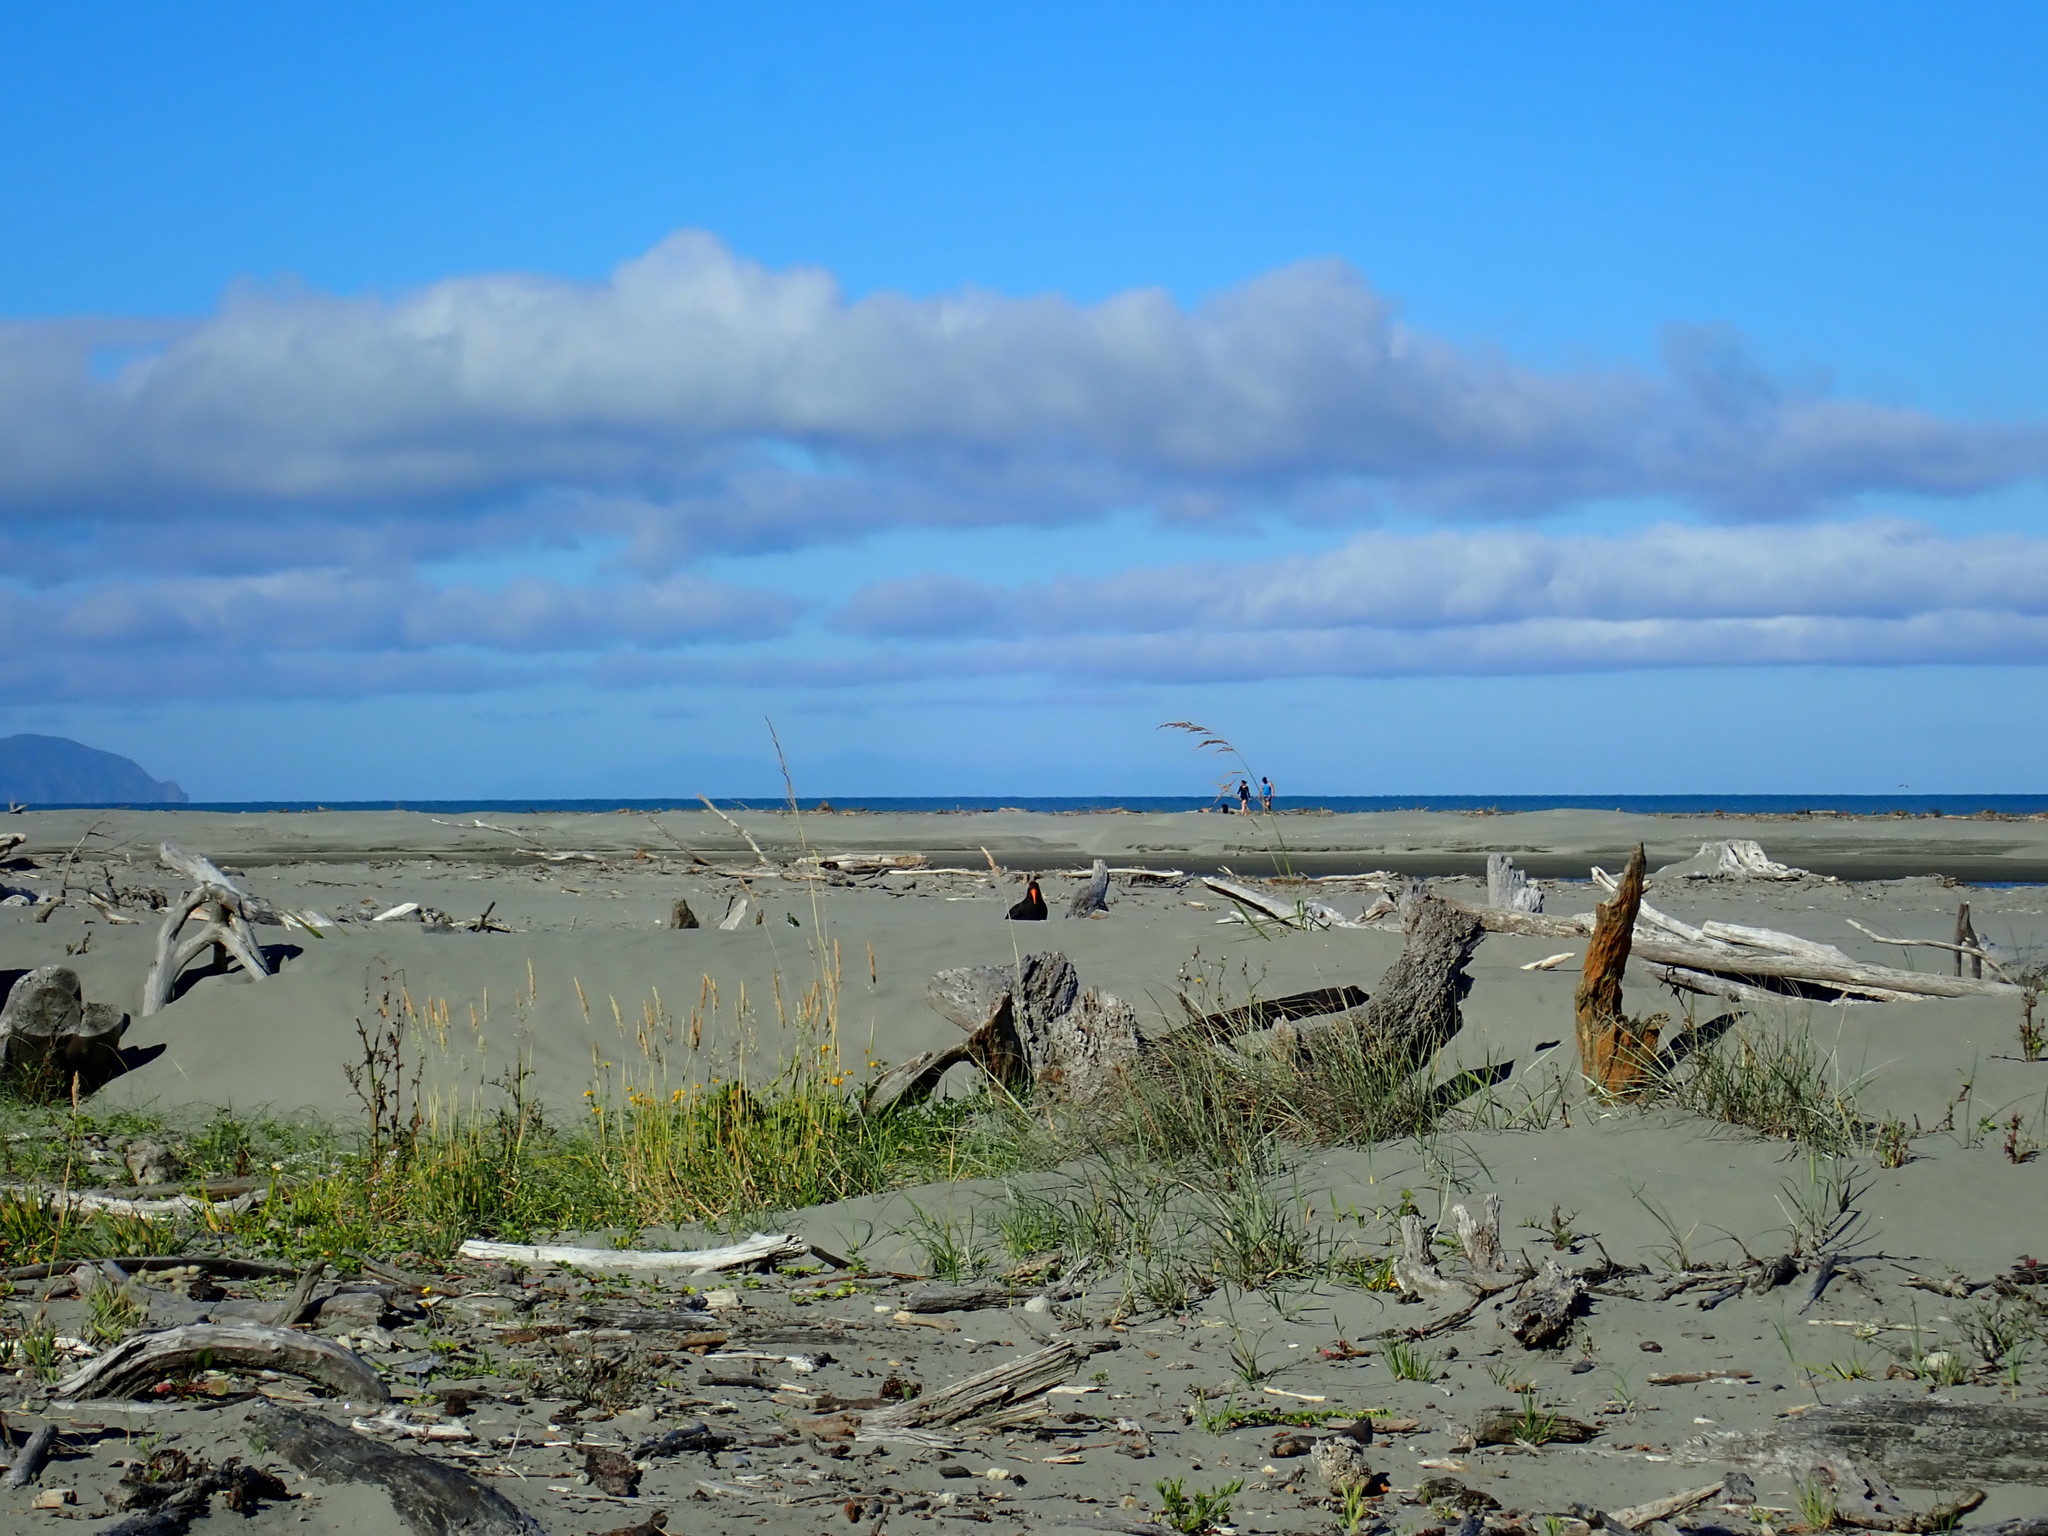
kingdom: Animalia
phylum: Chordata
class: Aves
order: Charadriiformes
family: Haematopodidae
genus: Haematopus
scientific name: Haematopus unicolor
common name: Variable oystercatcher
